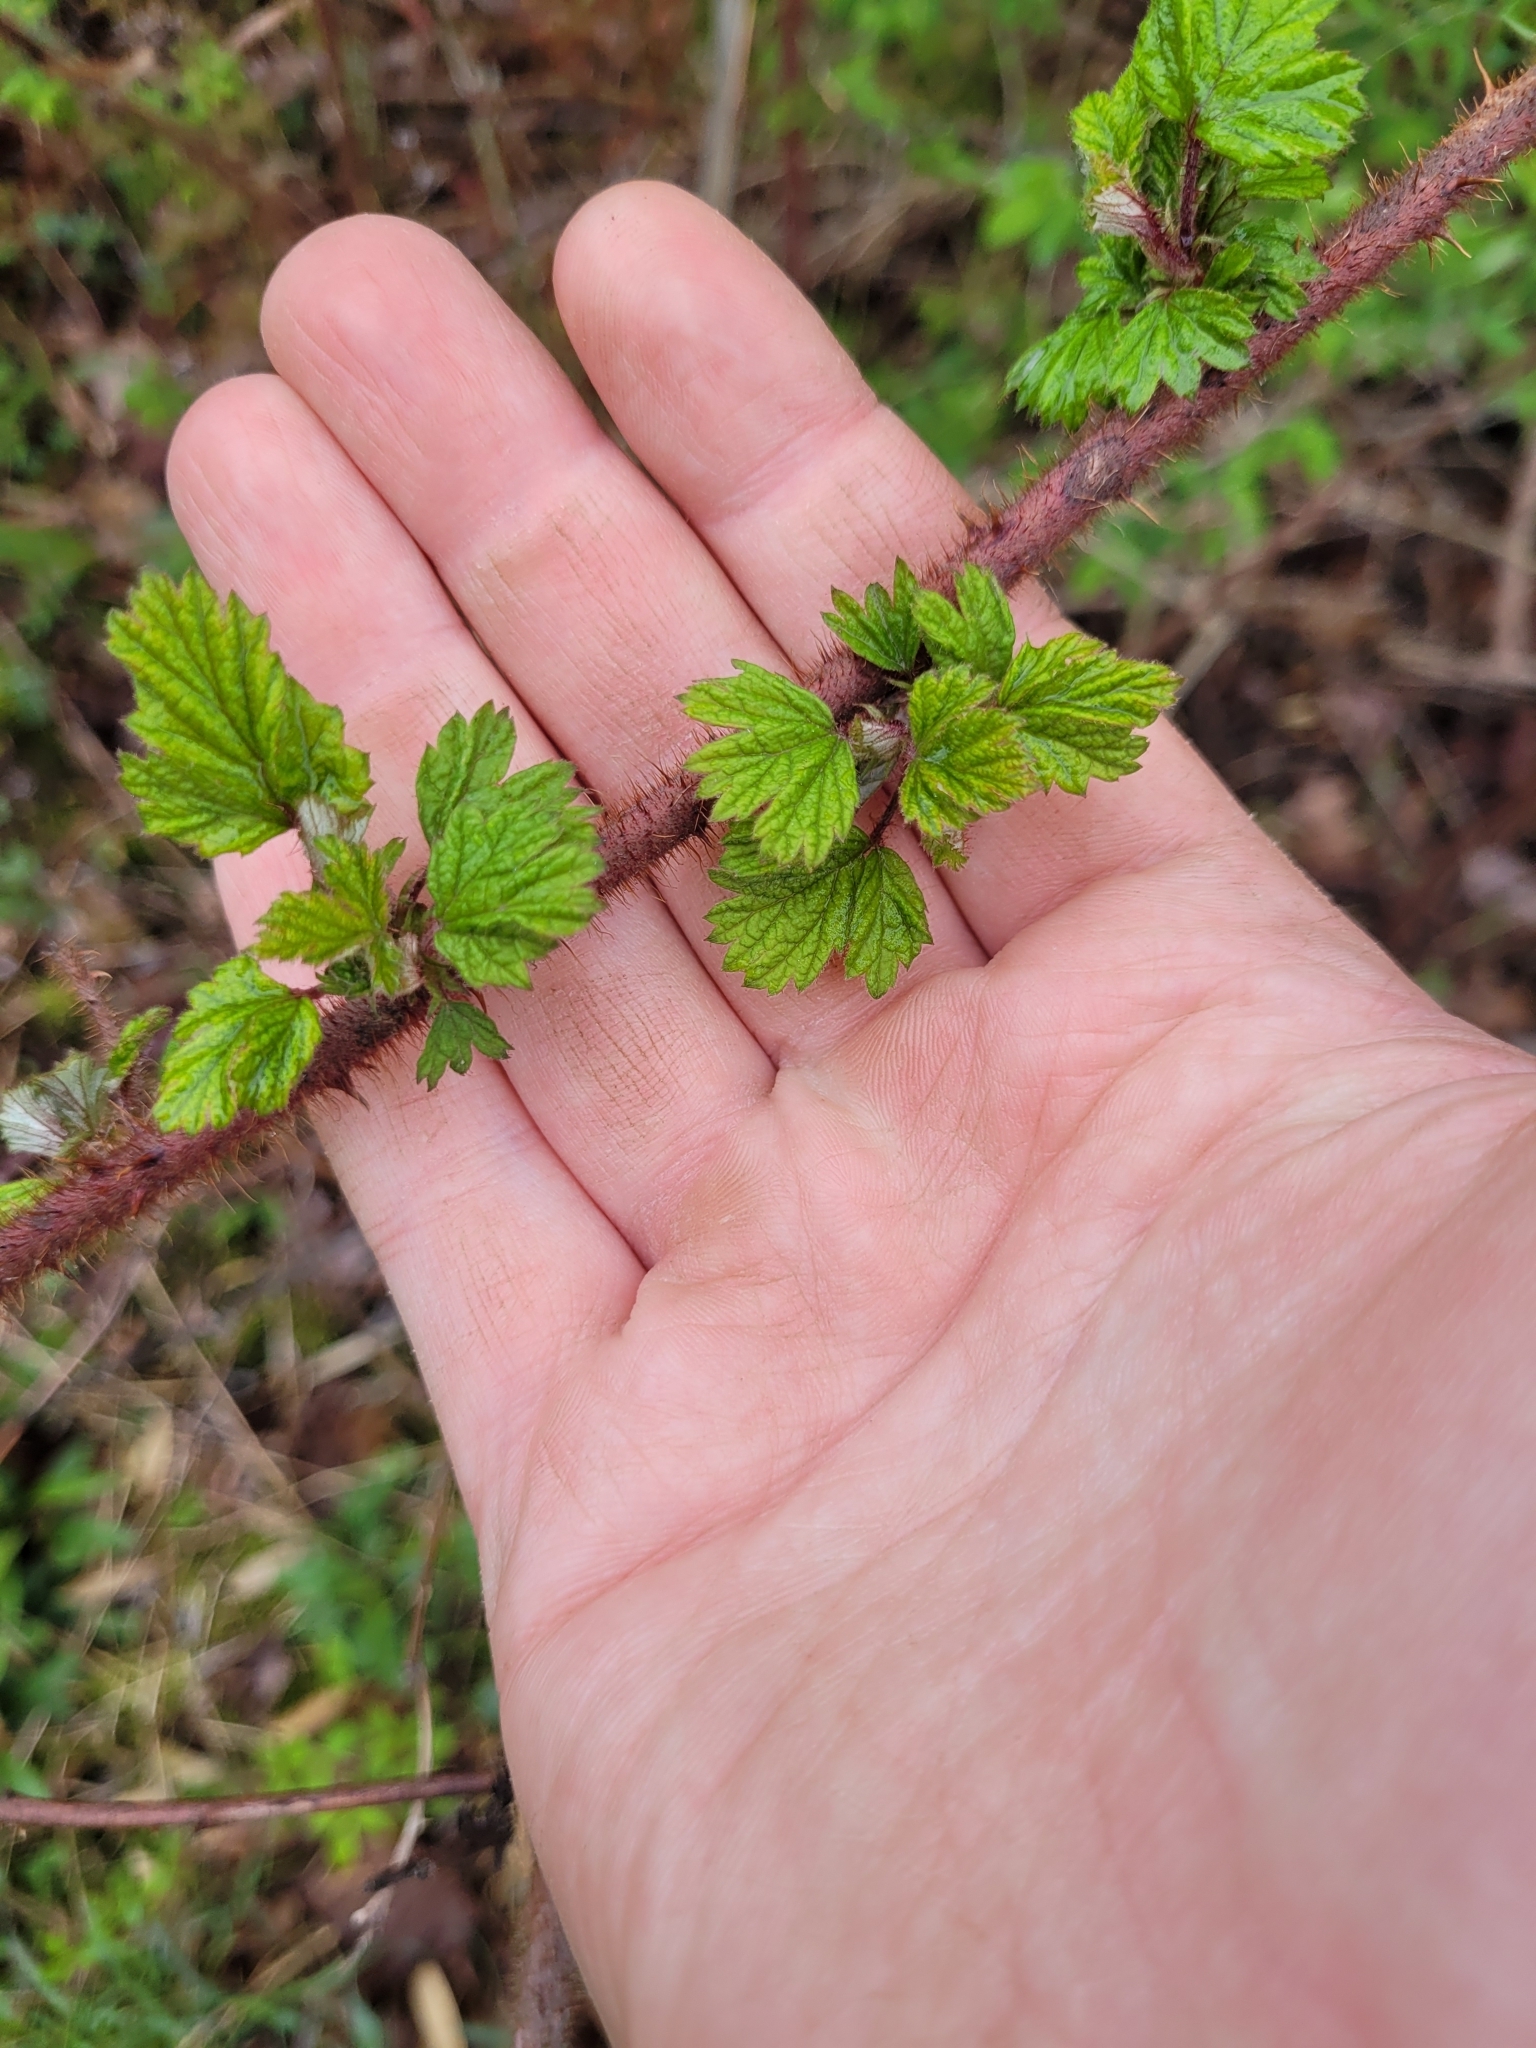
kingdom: Plantae
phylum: Tracheophyta
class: Magnoliopsida
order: Rosales
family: Rosaceae
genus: Rubus
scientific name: Rubus phoenicolasius
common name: Japanese wineberry
